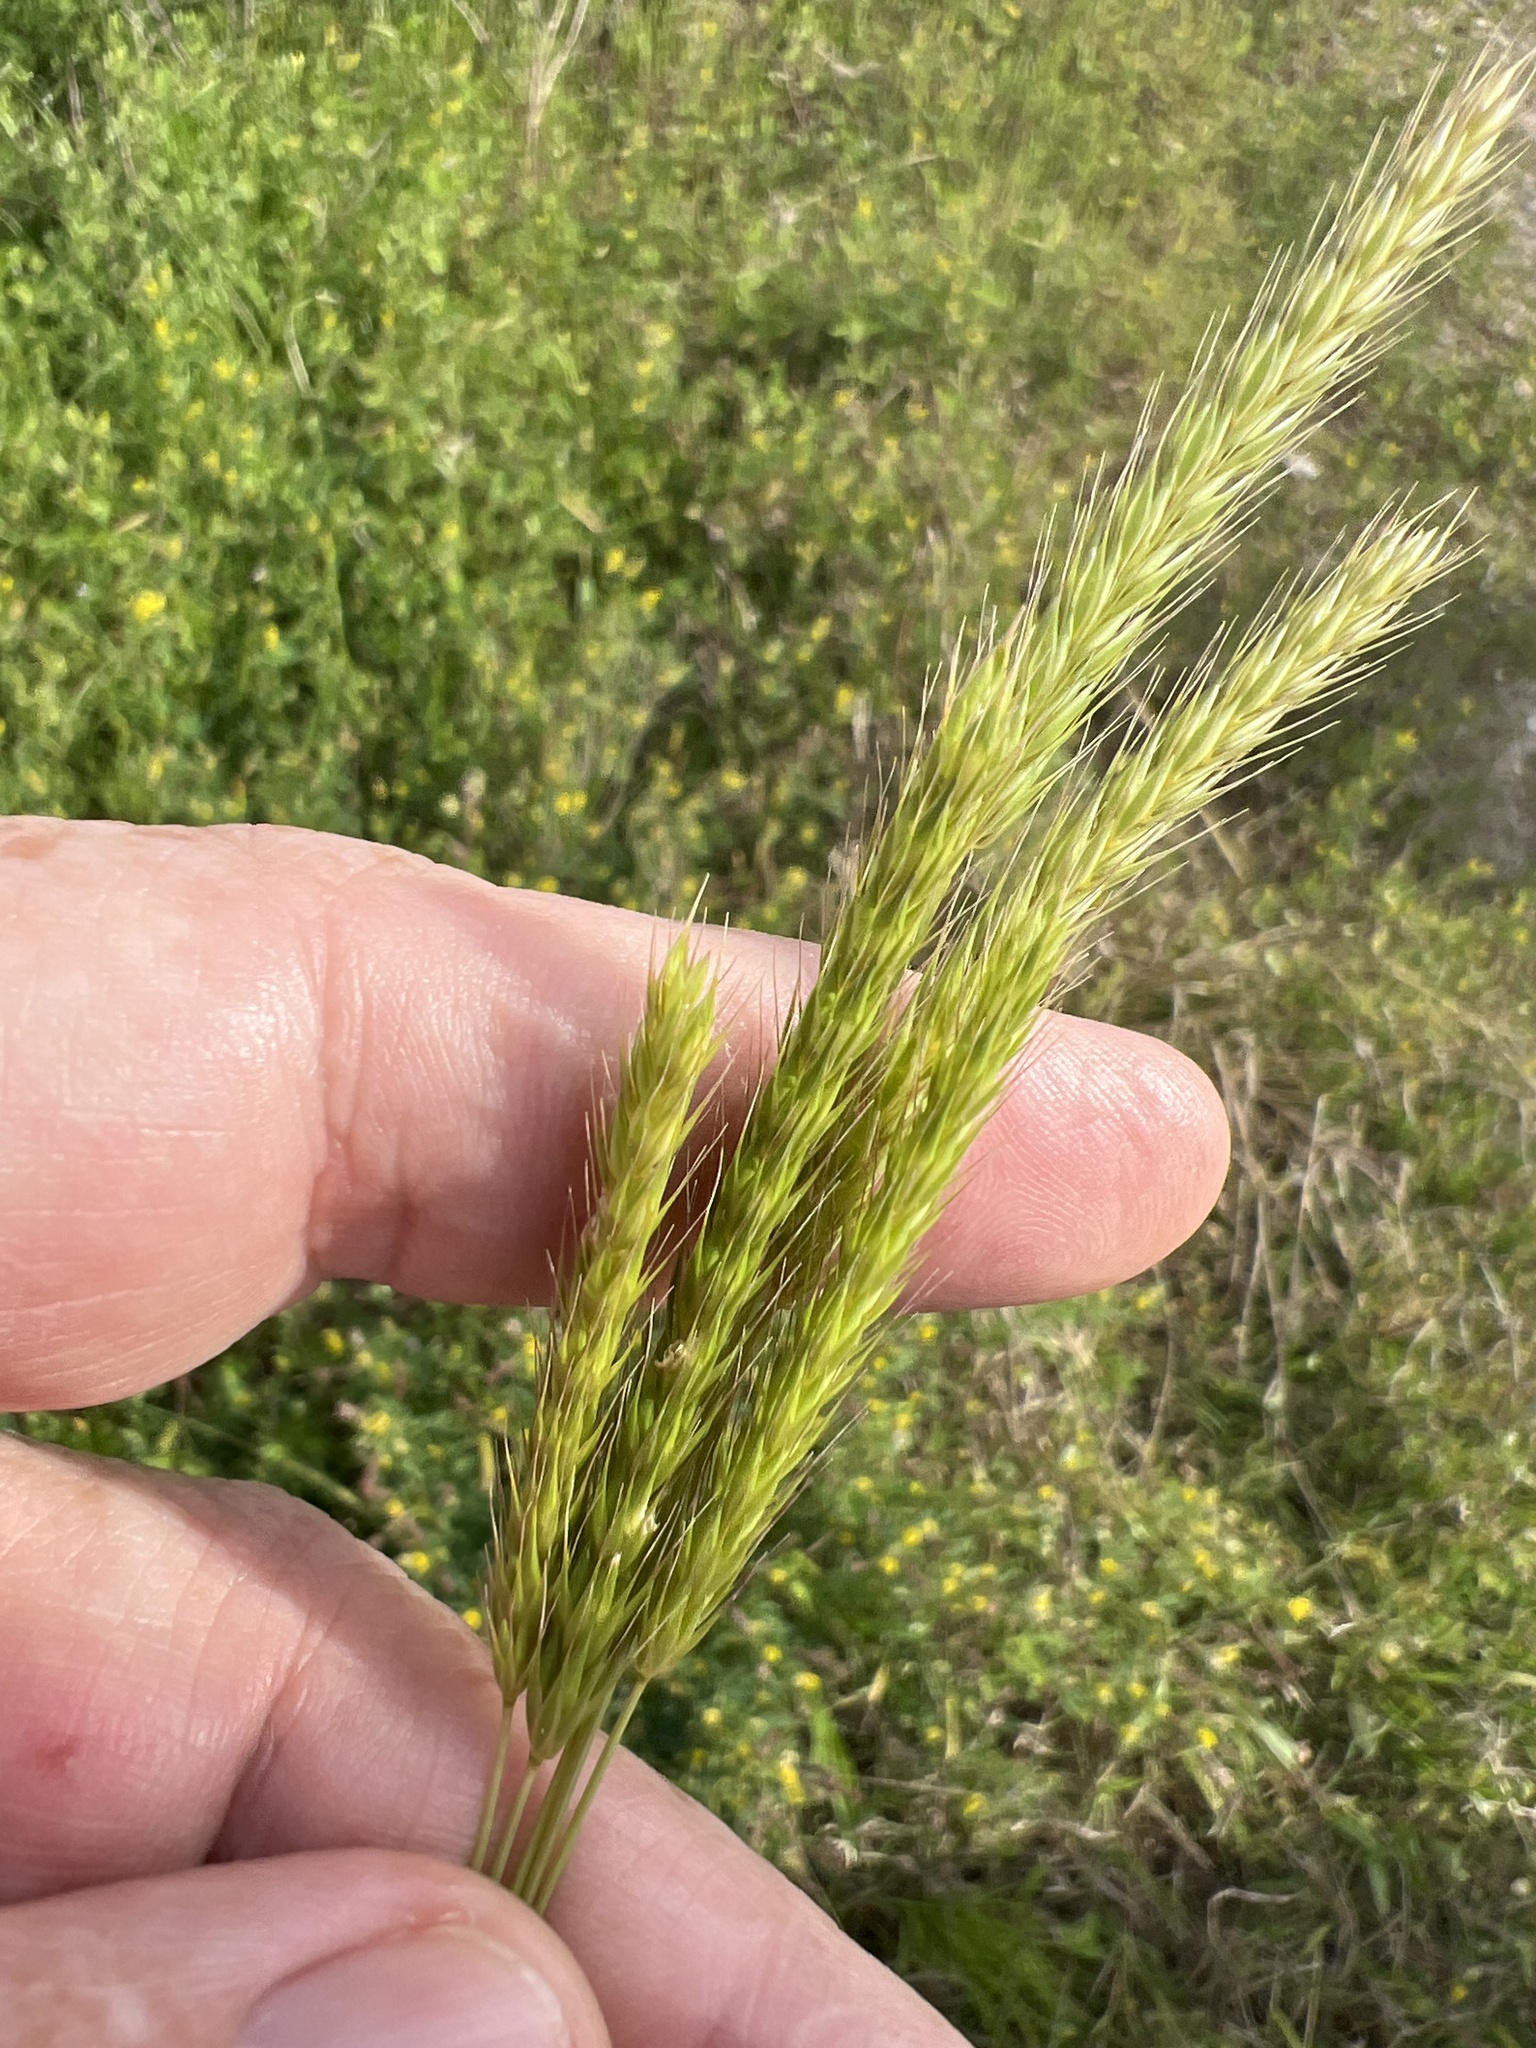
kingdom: Plantae
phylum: Tracheophyta
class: Liliopsida
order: Poales
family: Poaceae
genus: Hordeum
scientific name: Hordeum pusillum
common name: Little barley
